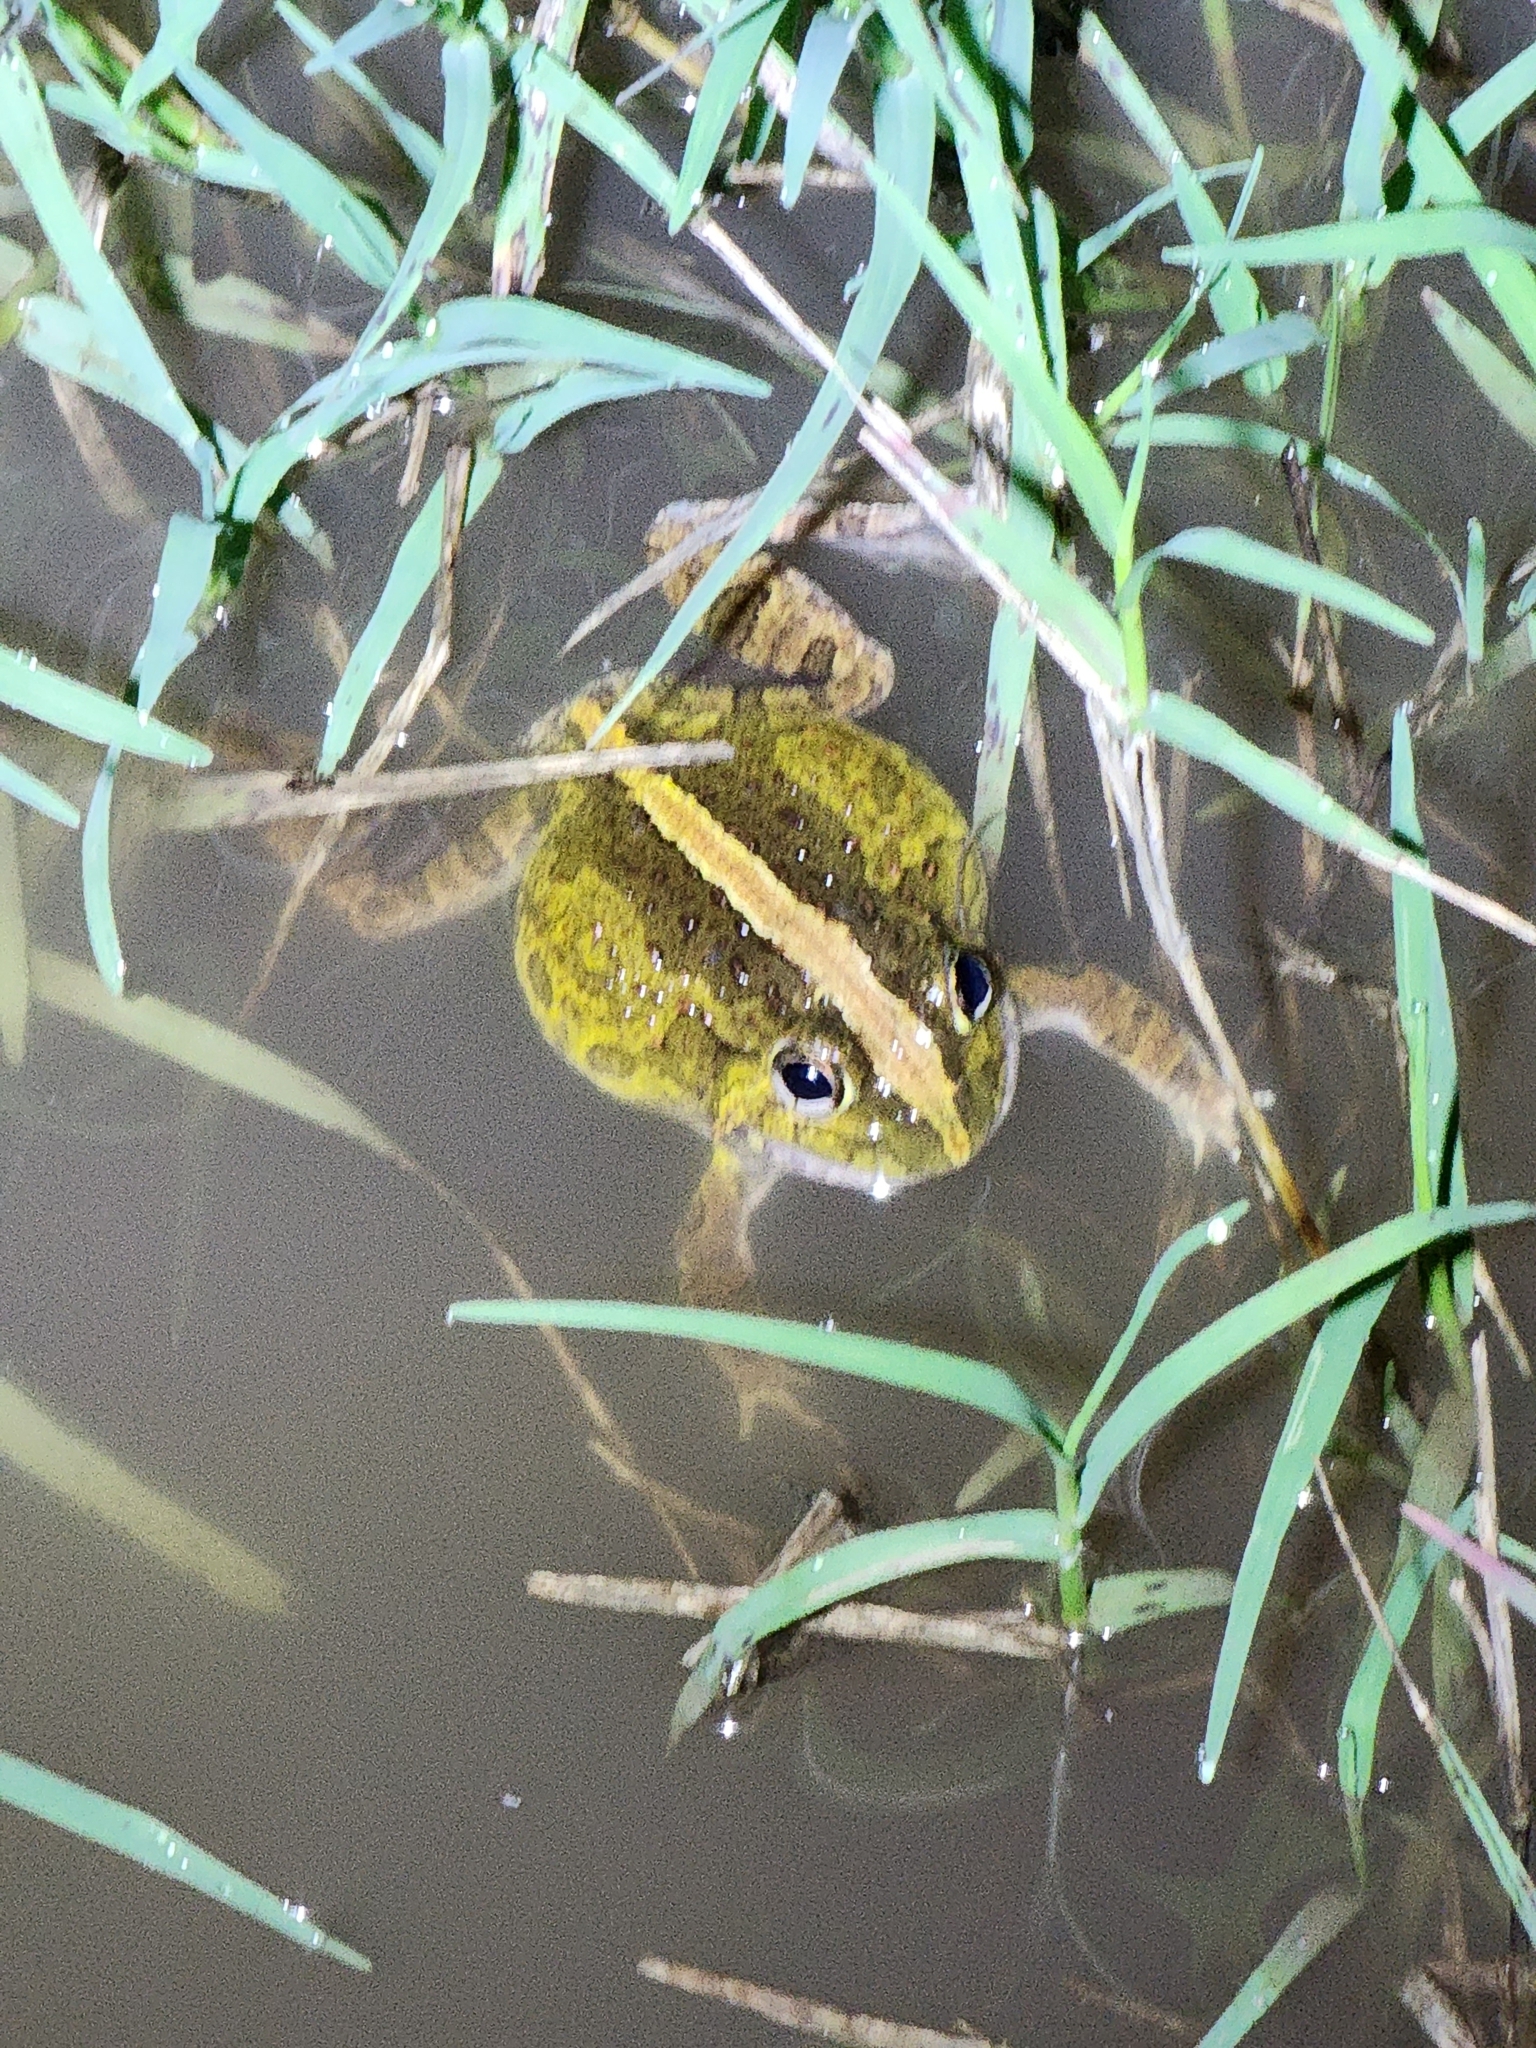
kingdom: Animalia
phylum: Chordata
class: Amphibia
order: Anura
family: Limnodynastidae
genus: Platyplectrum
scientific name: Platyplectrum ornatum
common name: Ornate burrowing frog
